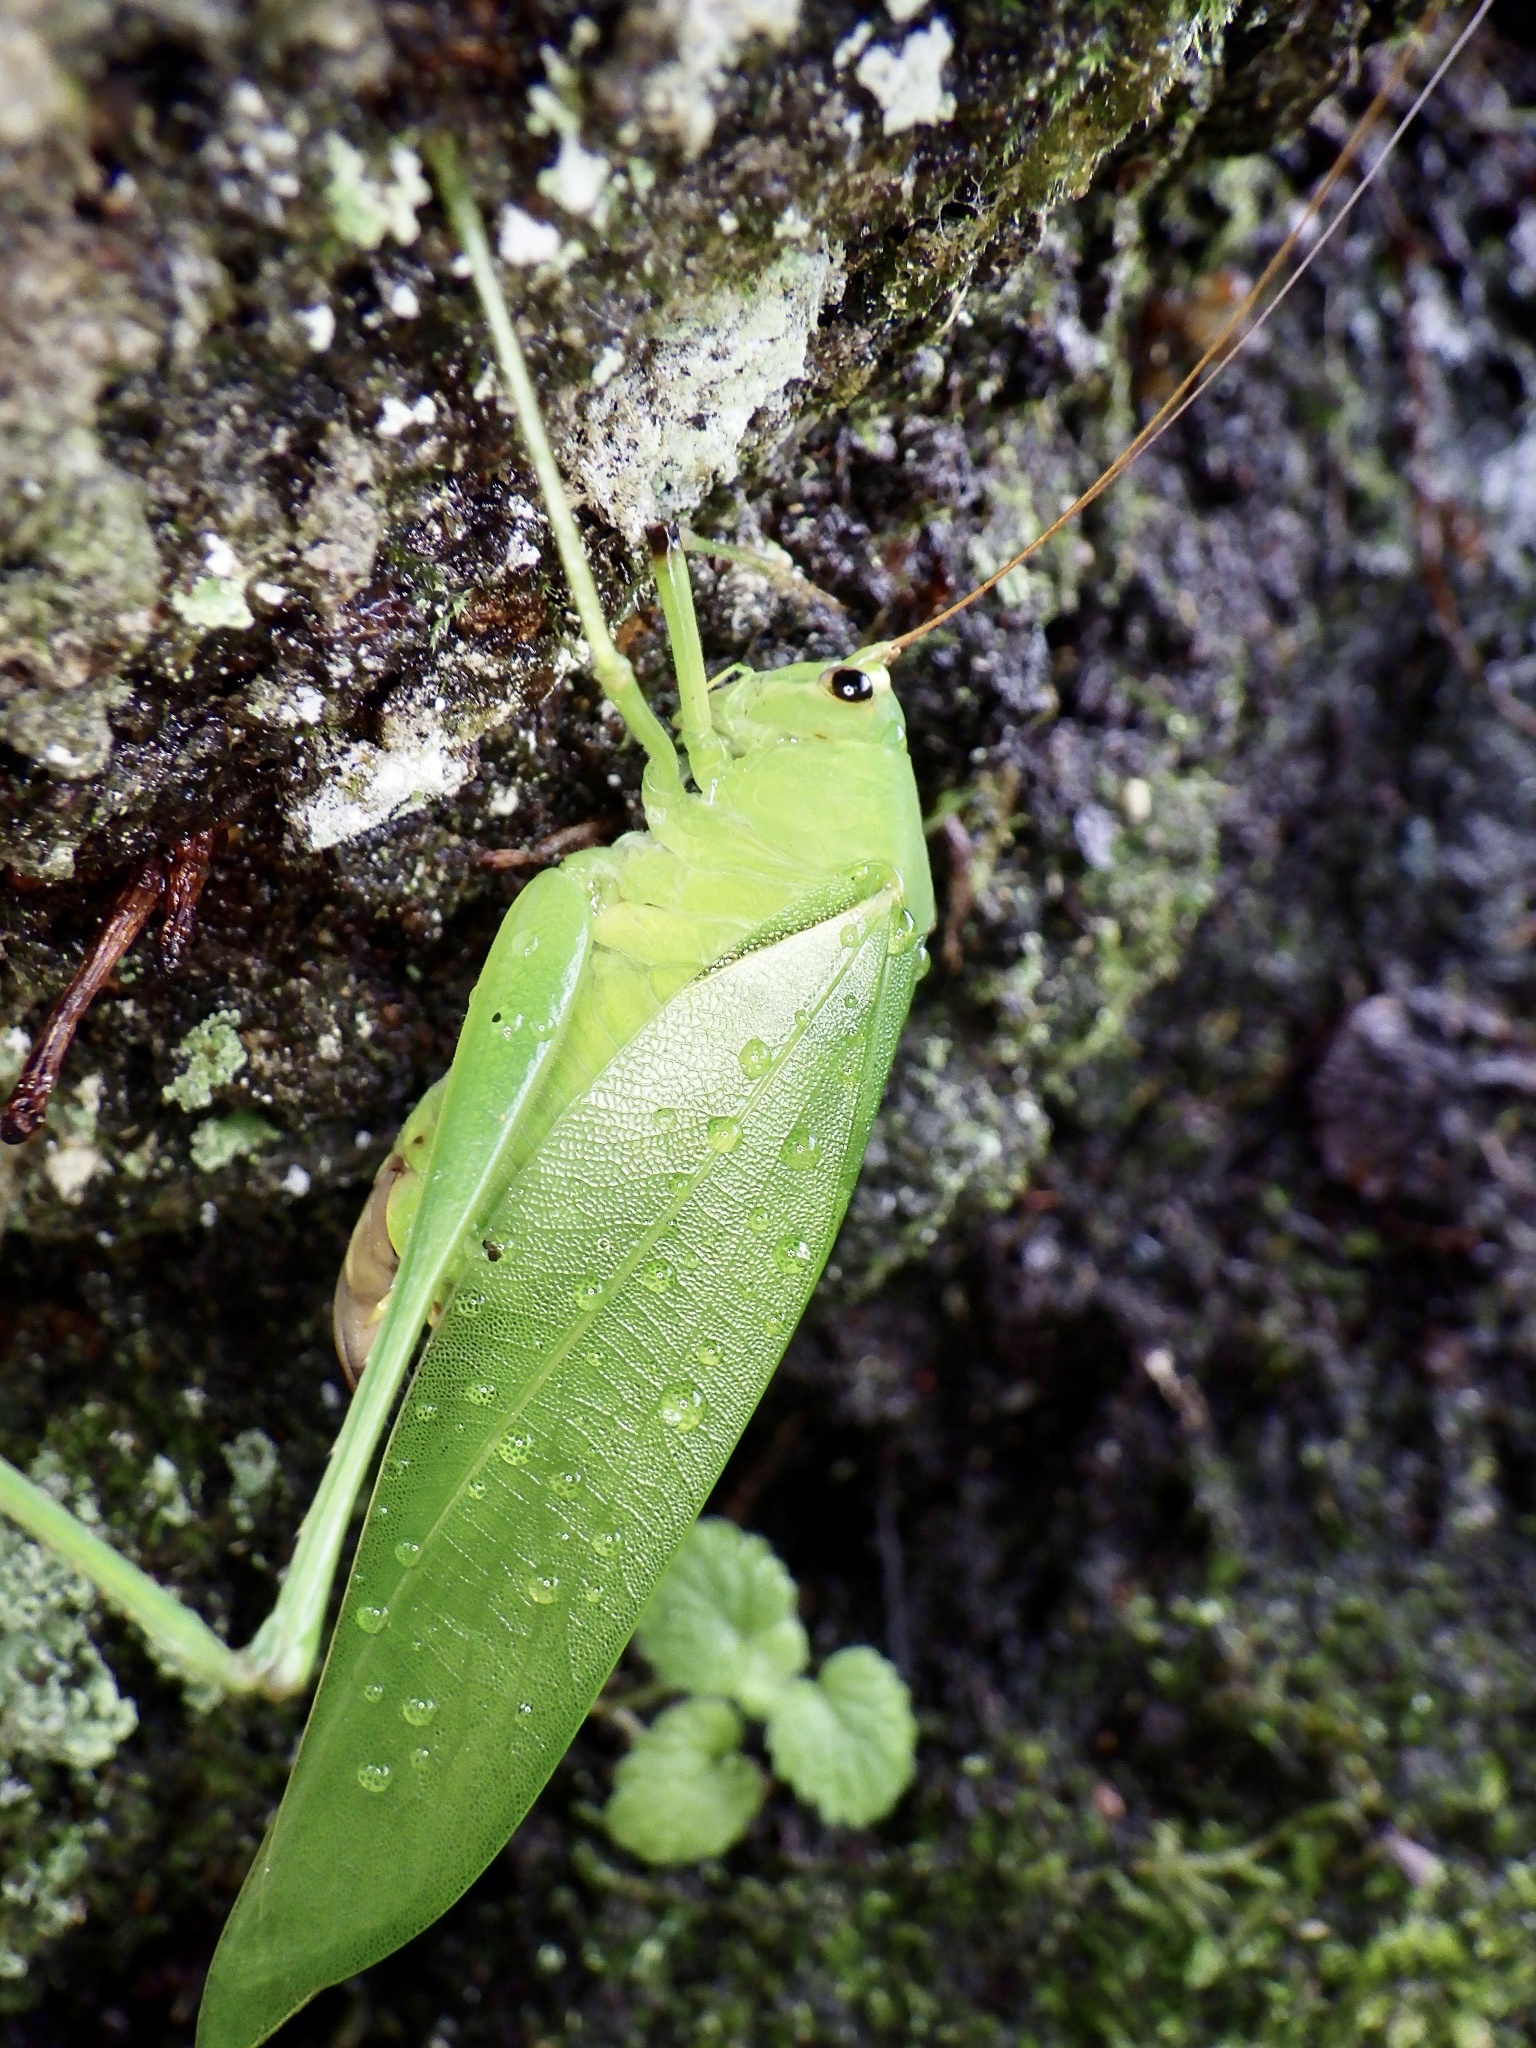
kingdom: Animalia
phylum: Arthropoda
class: Insecta
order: Orthoptera
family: Tettigoniidae
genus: Holochlora
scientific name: Holochlora japonica
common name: Japanese broadwinged katydid
